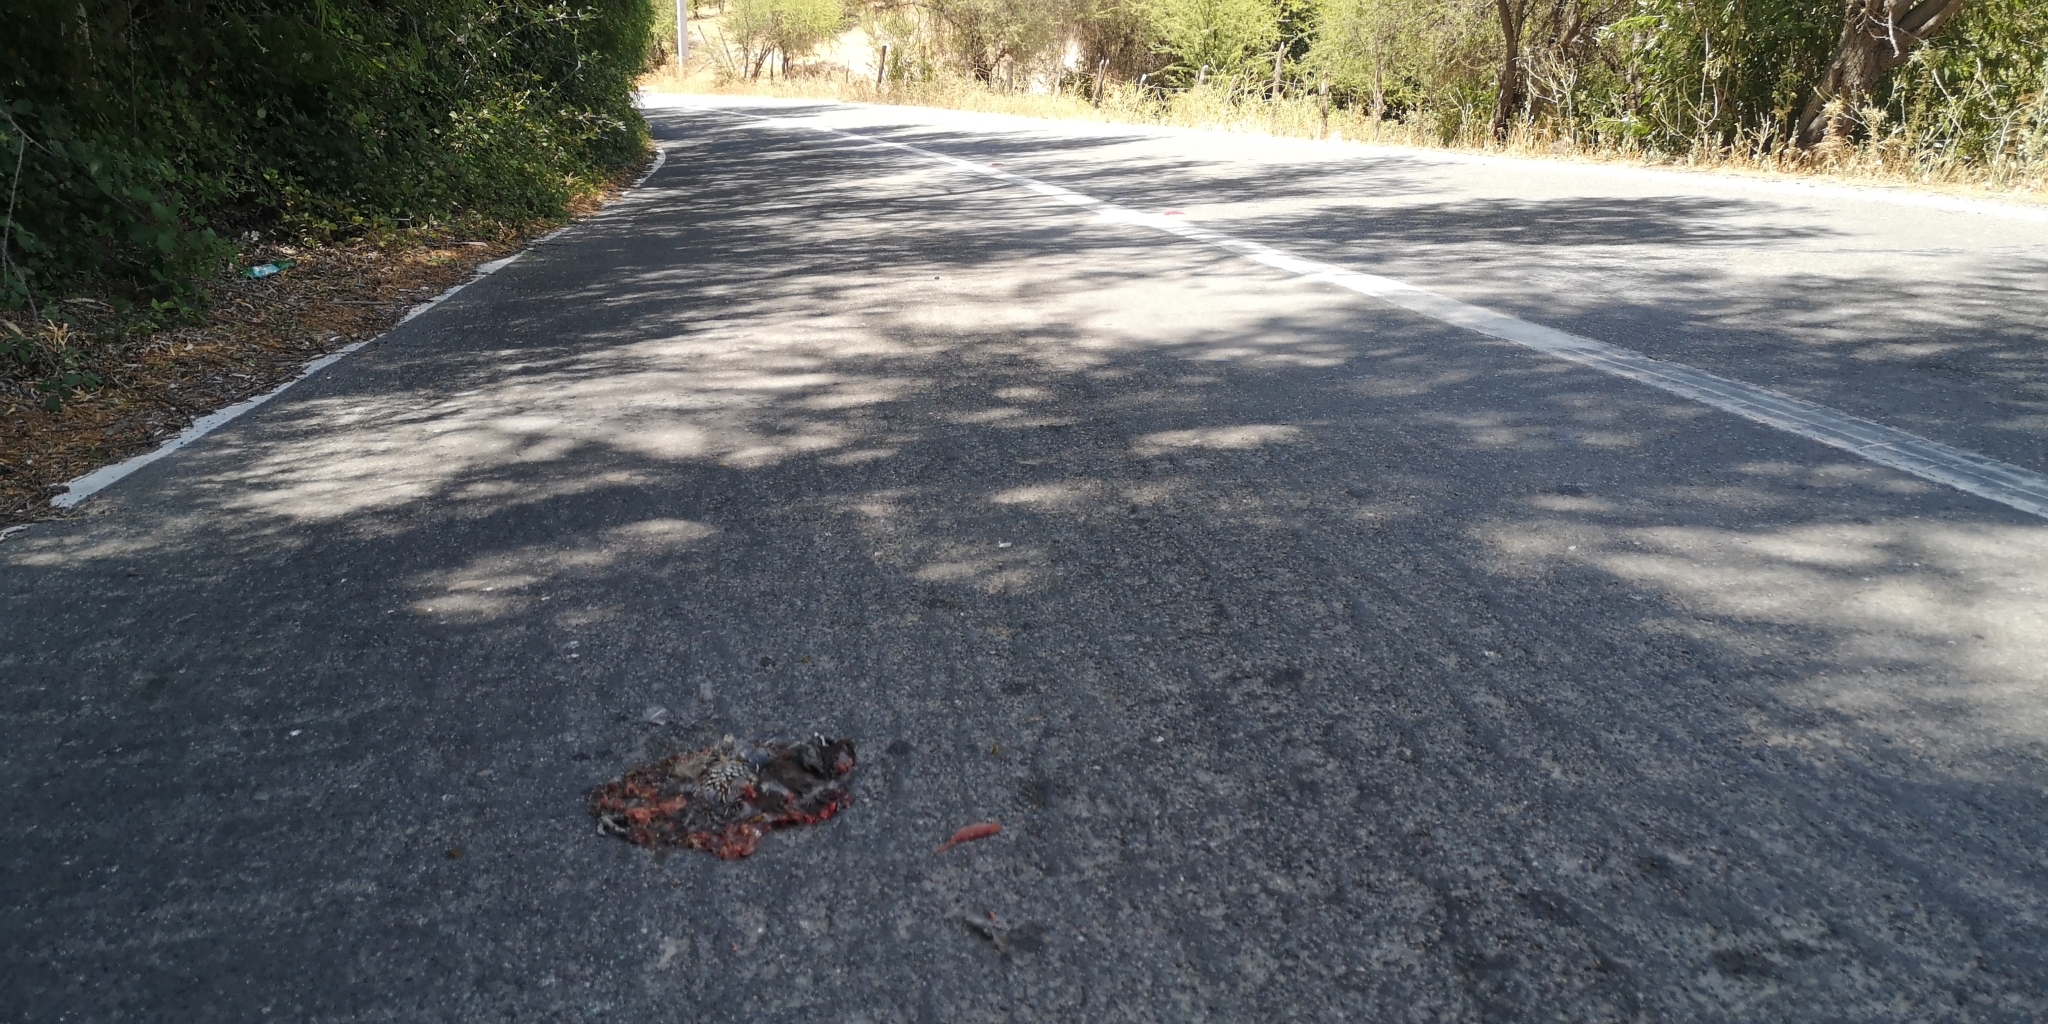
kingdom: Animalia
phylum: Chordata
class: Aves
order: Galliformes
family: Odontophoridae
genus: Callipepla
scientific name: Callipepla californica
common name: California quail
